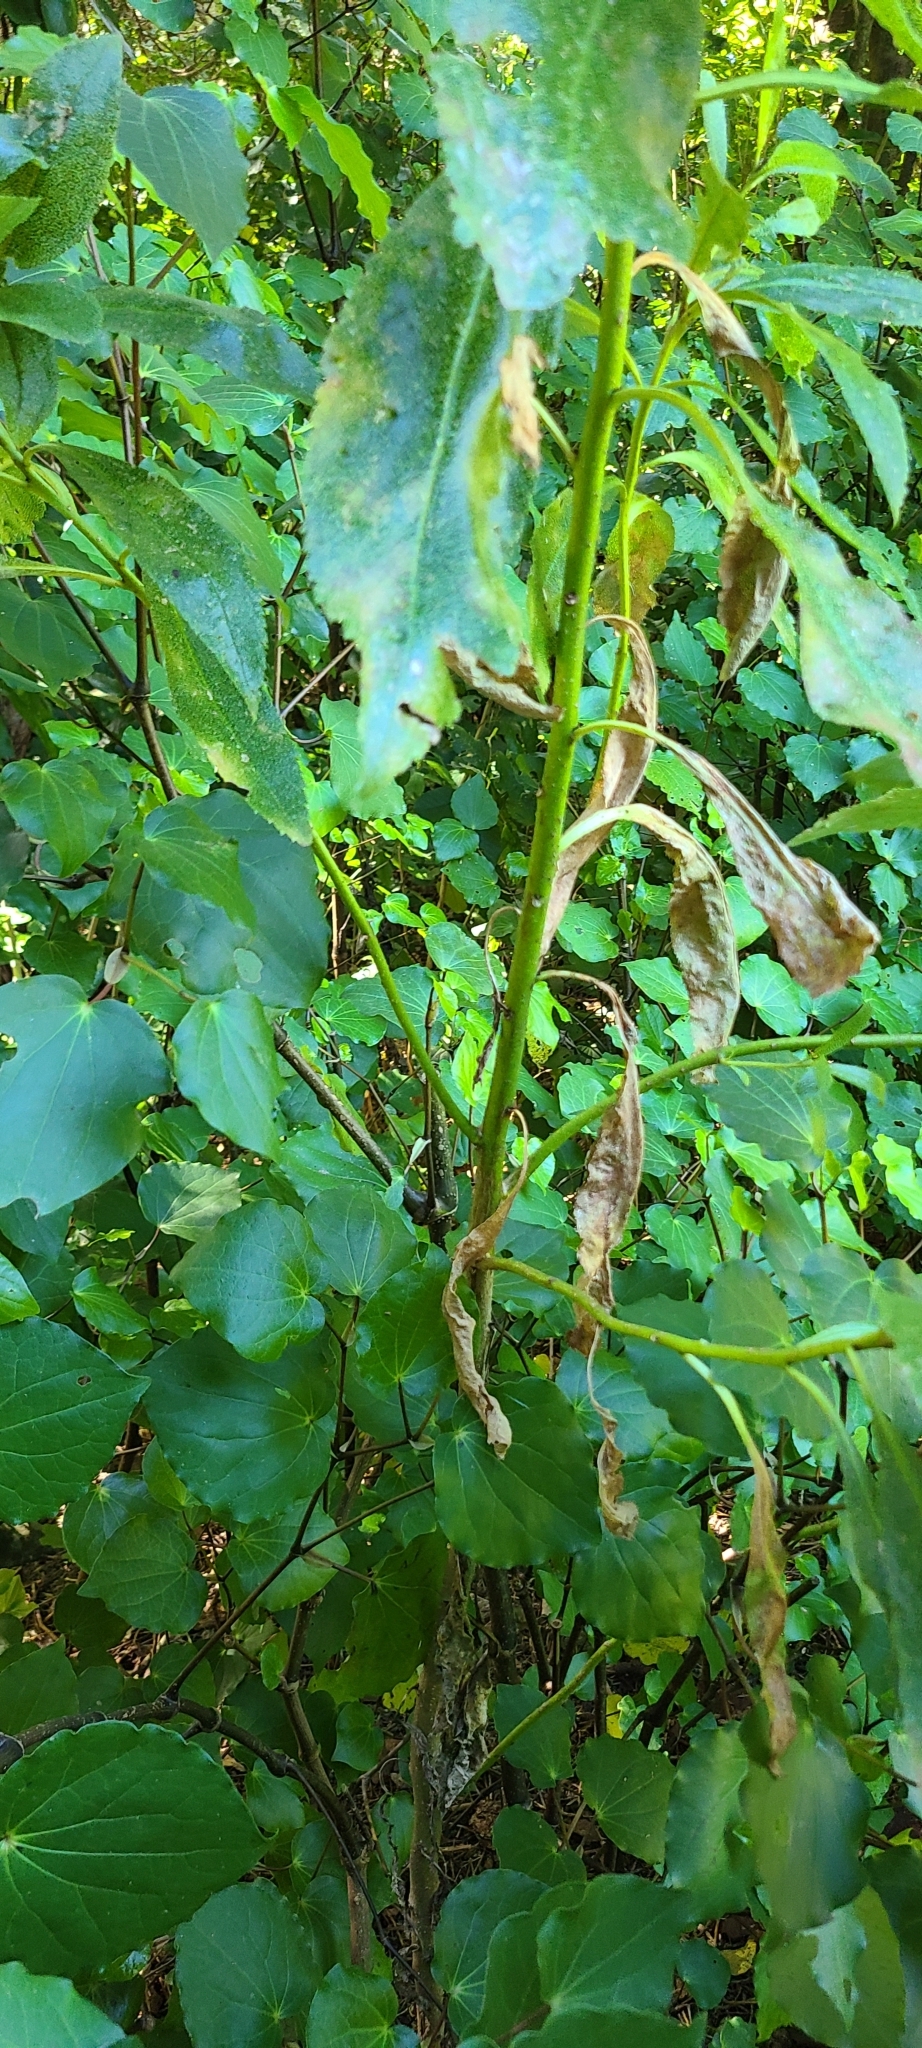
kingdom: Plantae
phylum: Tracheophyta
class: Magnoliopsida
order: Lamiales
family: Scrophulariaceae
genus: Myoporum
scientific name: Myoporum laetum
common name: Ngaio tree
